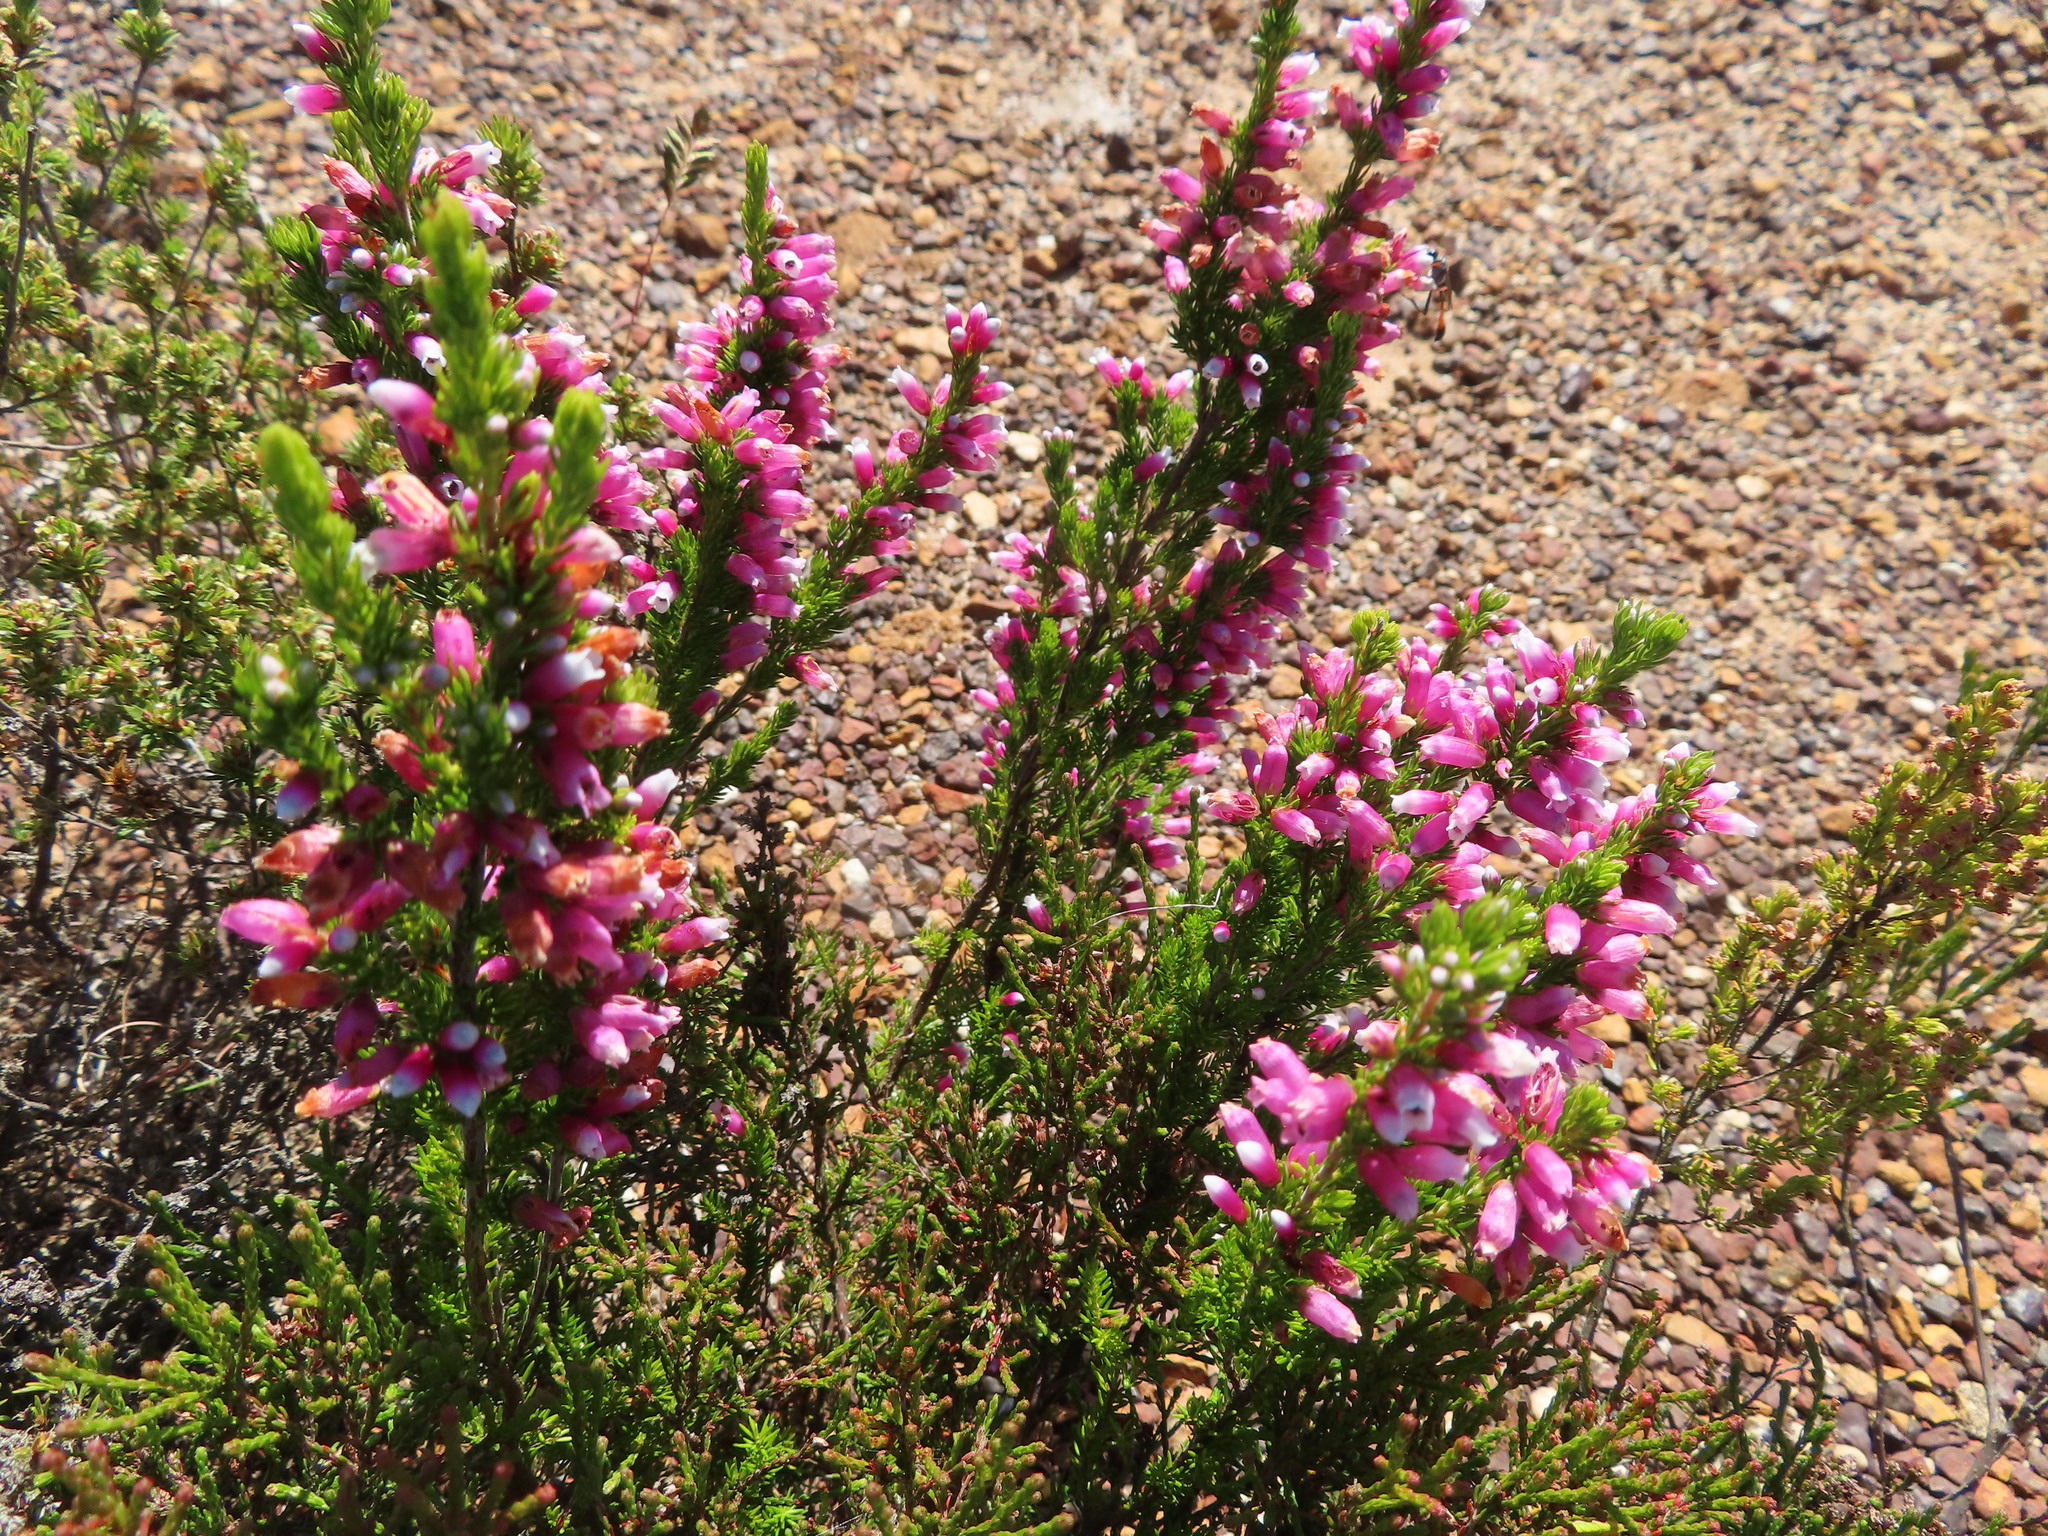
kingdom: Plantae
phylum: Tracheophyta
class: Magnoliopsida
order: Ericales
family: Ericaceae
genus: Erica
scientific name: Erica sitiens
